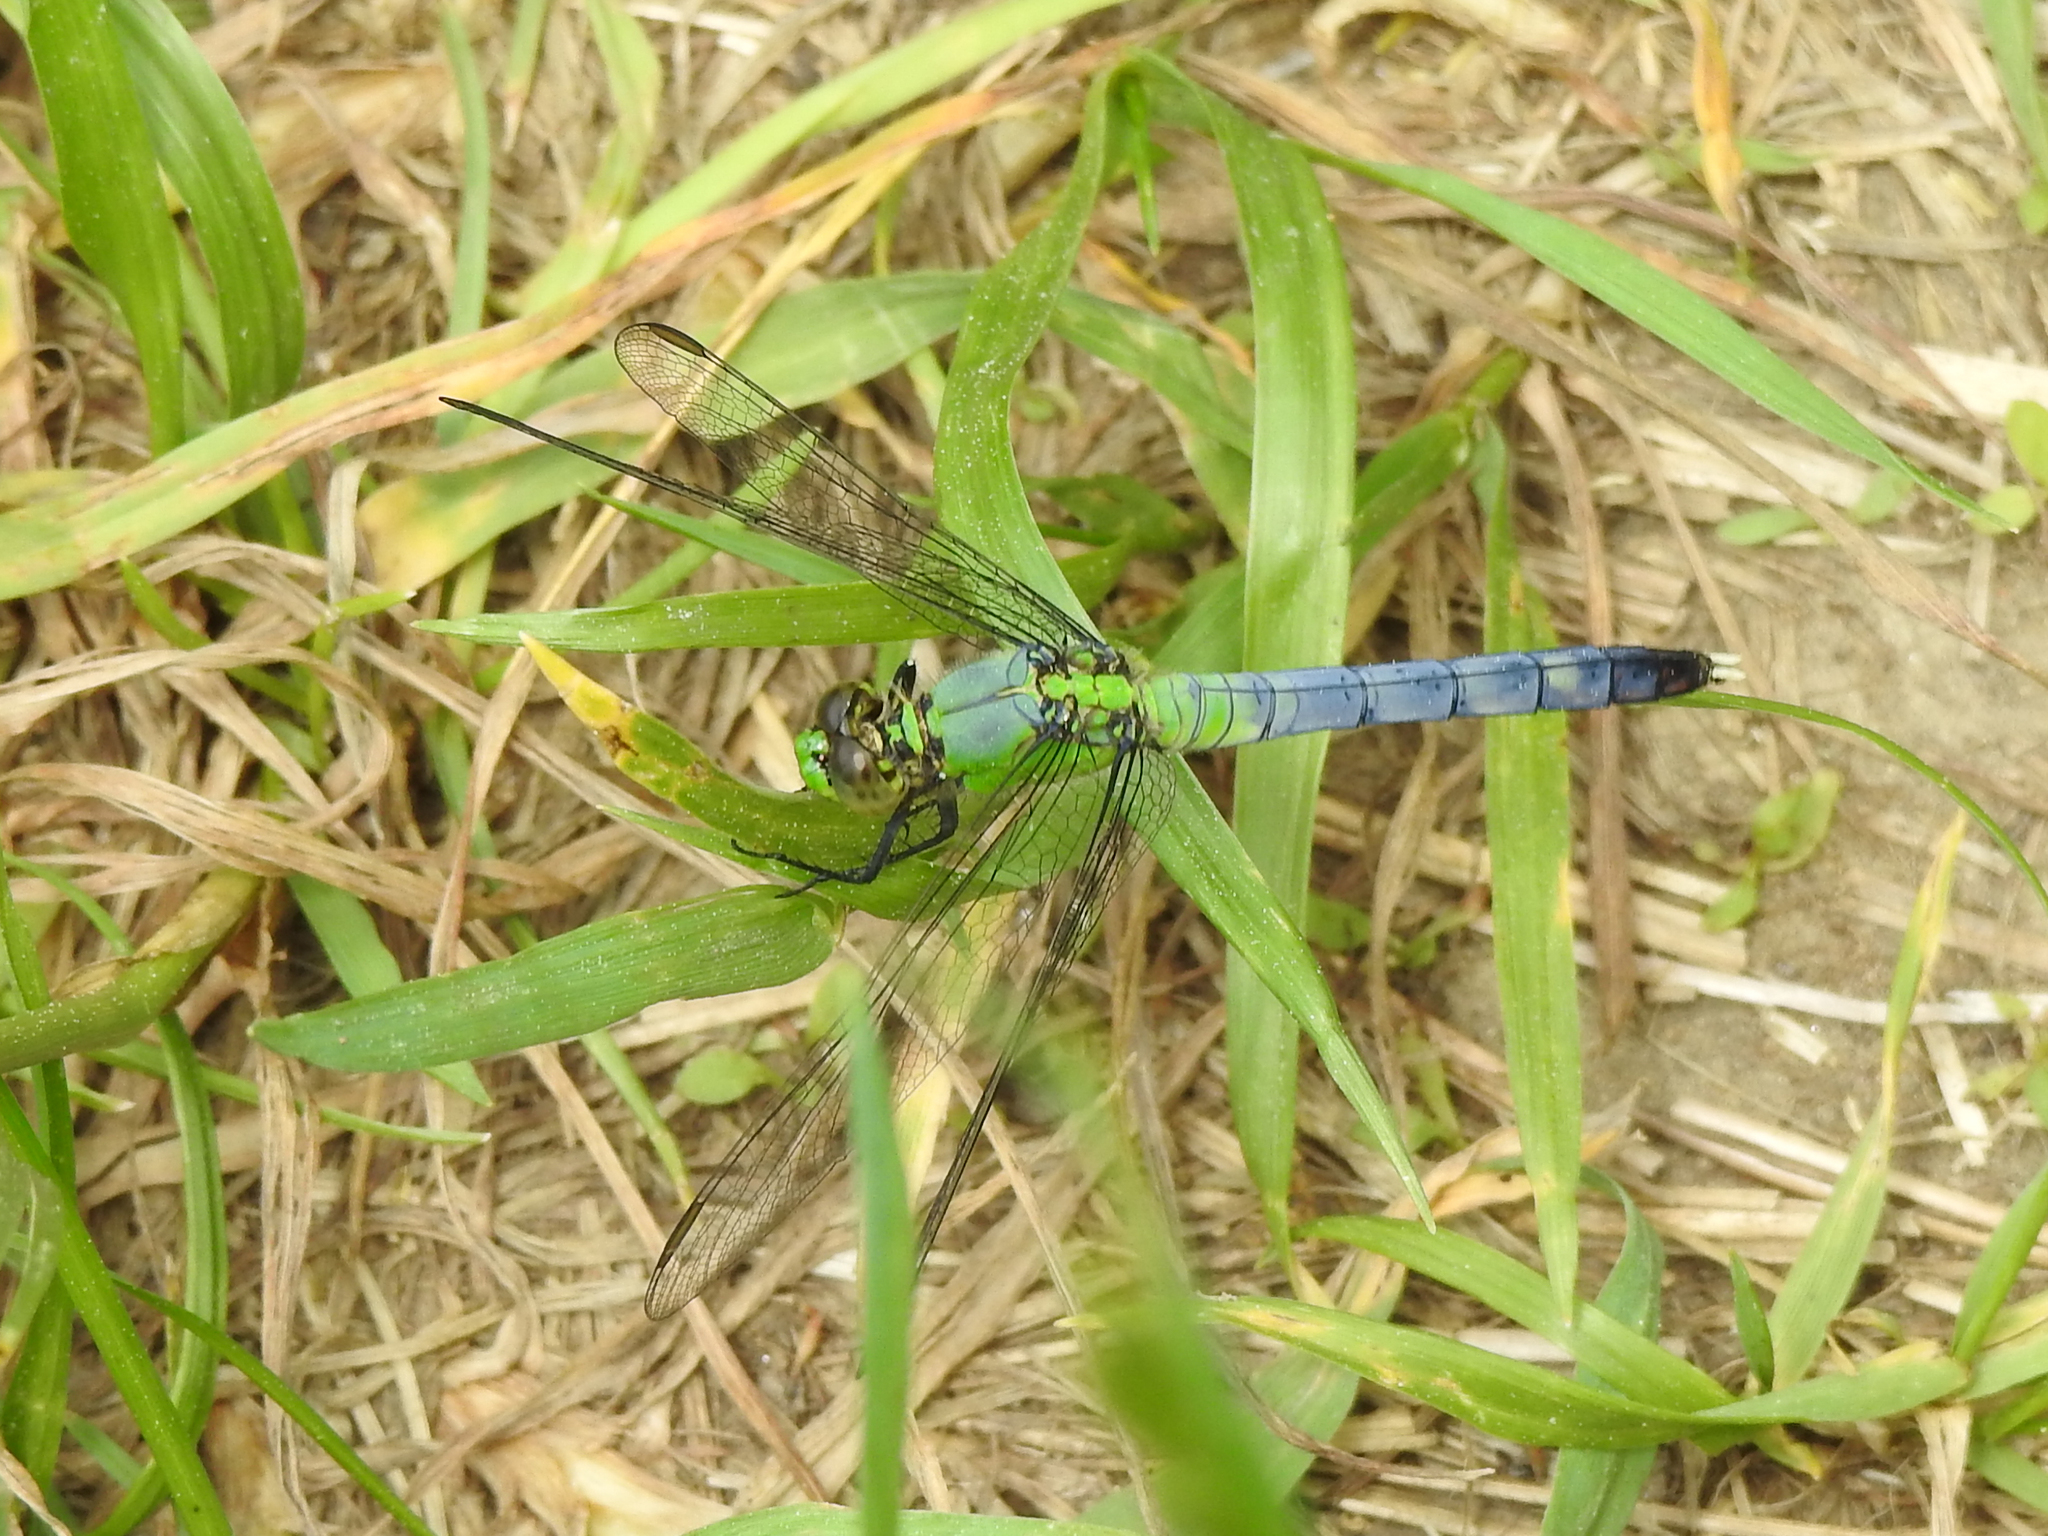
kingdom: Animalia
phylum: Arthropoda
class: Insecta
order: Odonata
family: Libellulidae
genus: Erythemis
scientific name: Erythemis simplicicollis
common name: Eastern pondhawk
